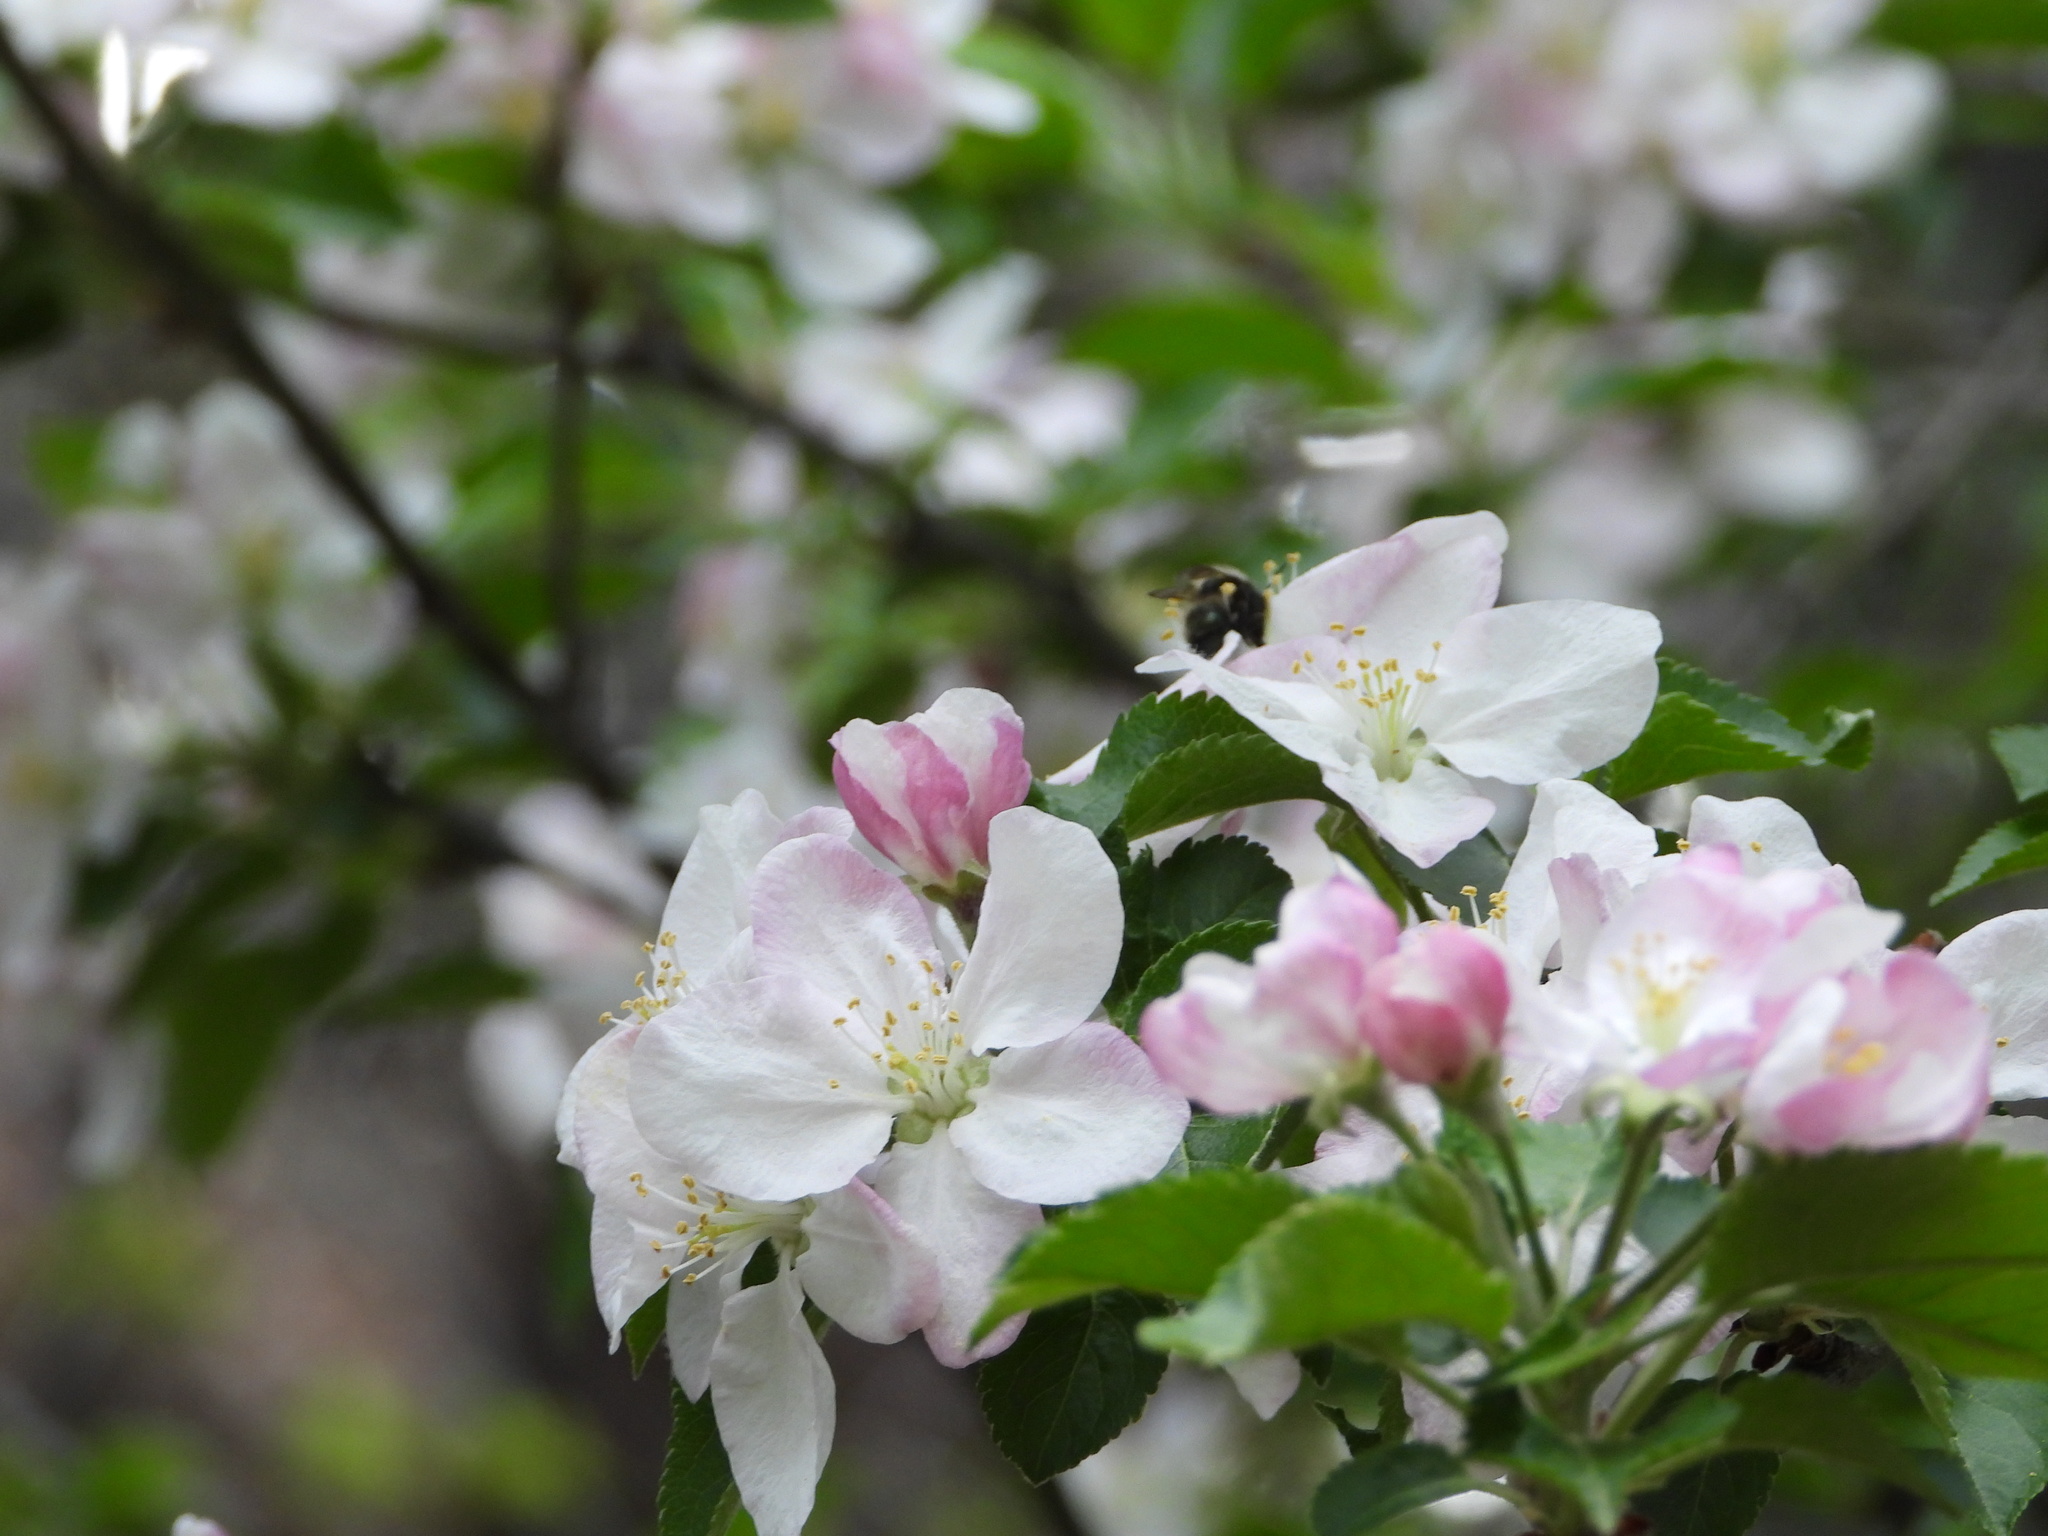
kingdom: Plantae
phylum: Tracheophyta
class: Magnoliopsida
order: Rosales
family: Rosaceae
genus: Malus
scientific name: Malus domestica
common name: Apple
